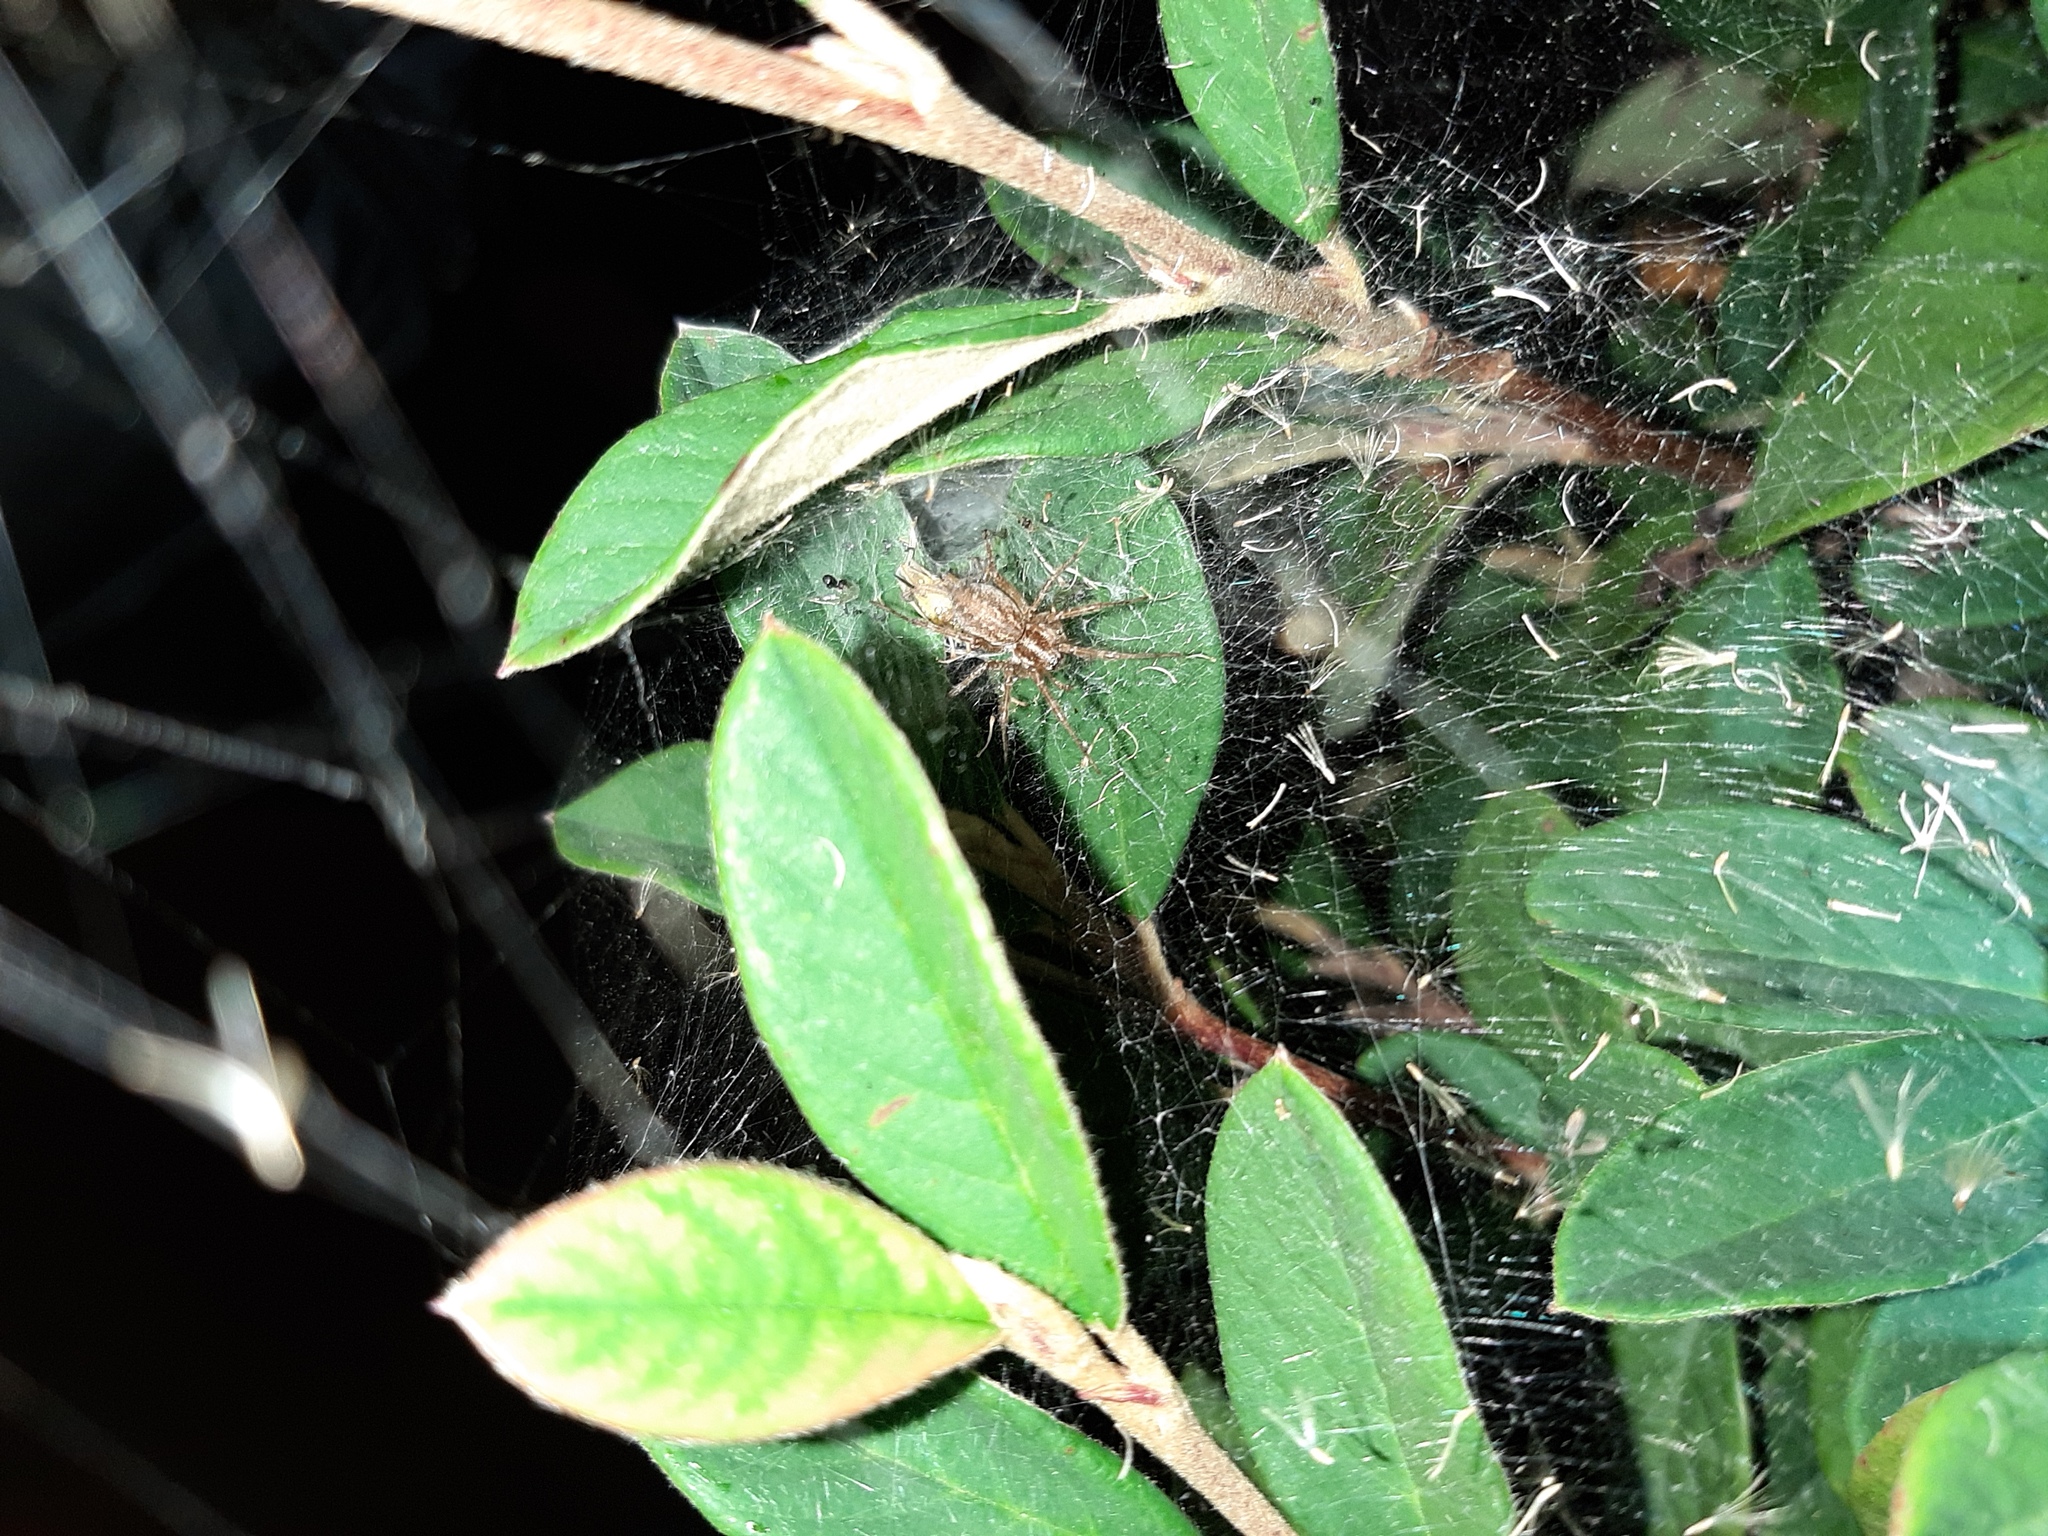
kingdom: Animalia
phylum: Arthropoda
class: Arachnida
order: Araneae
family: Agelenidae
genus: Allagelena
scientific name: Allagelena gracilens
